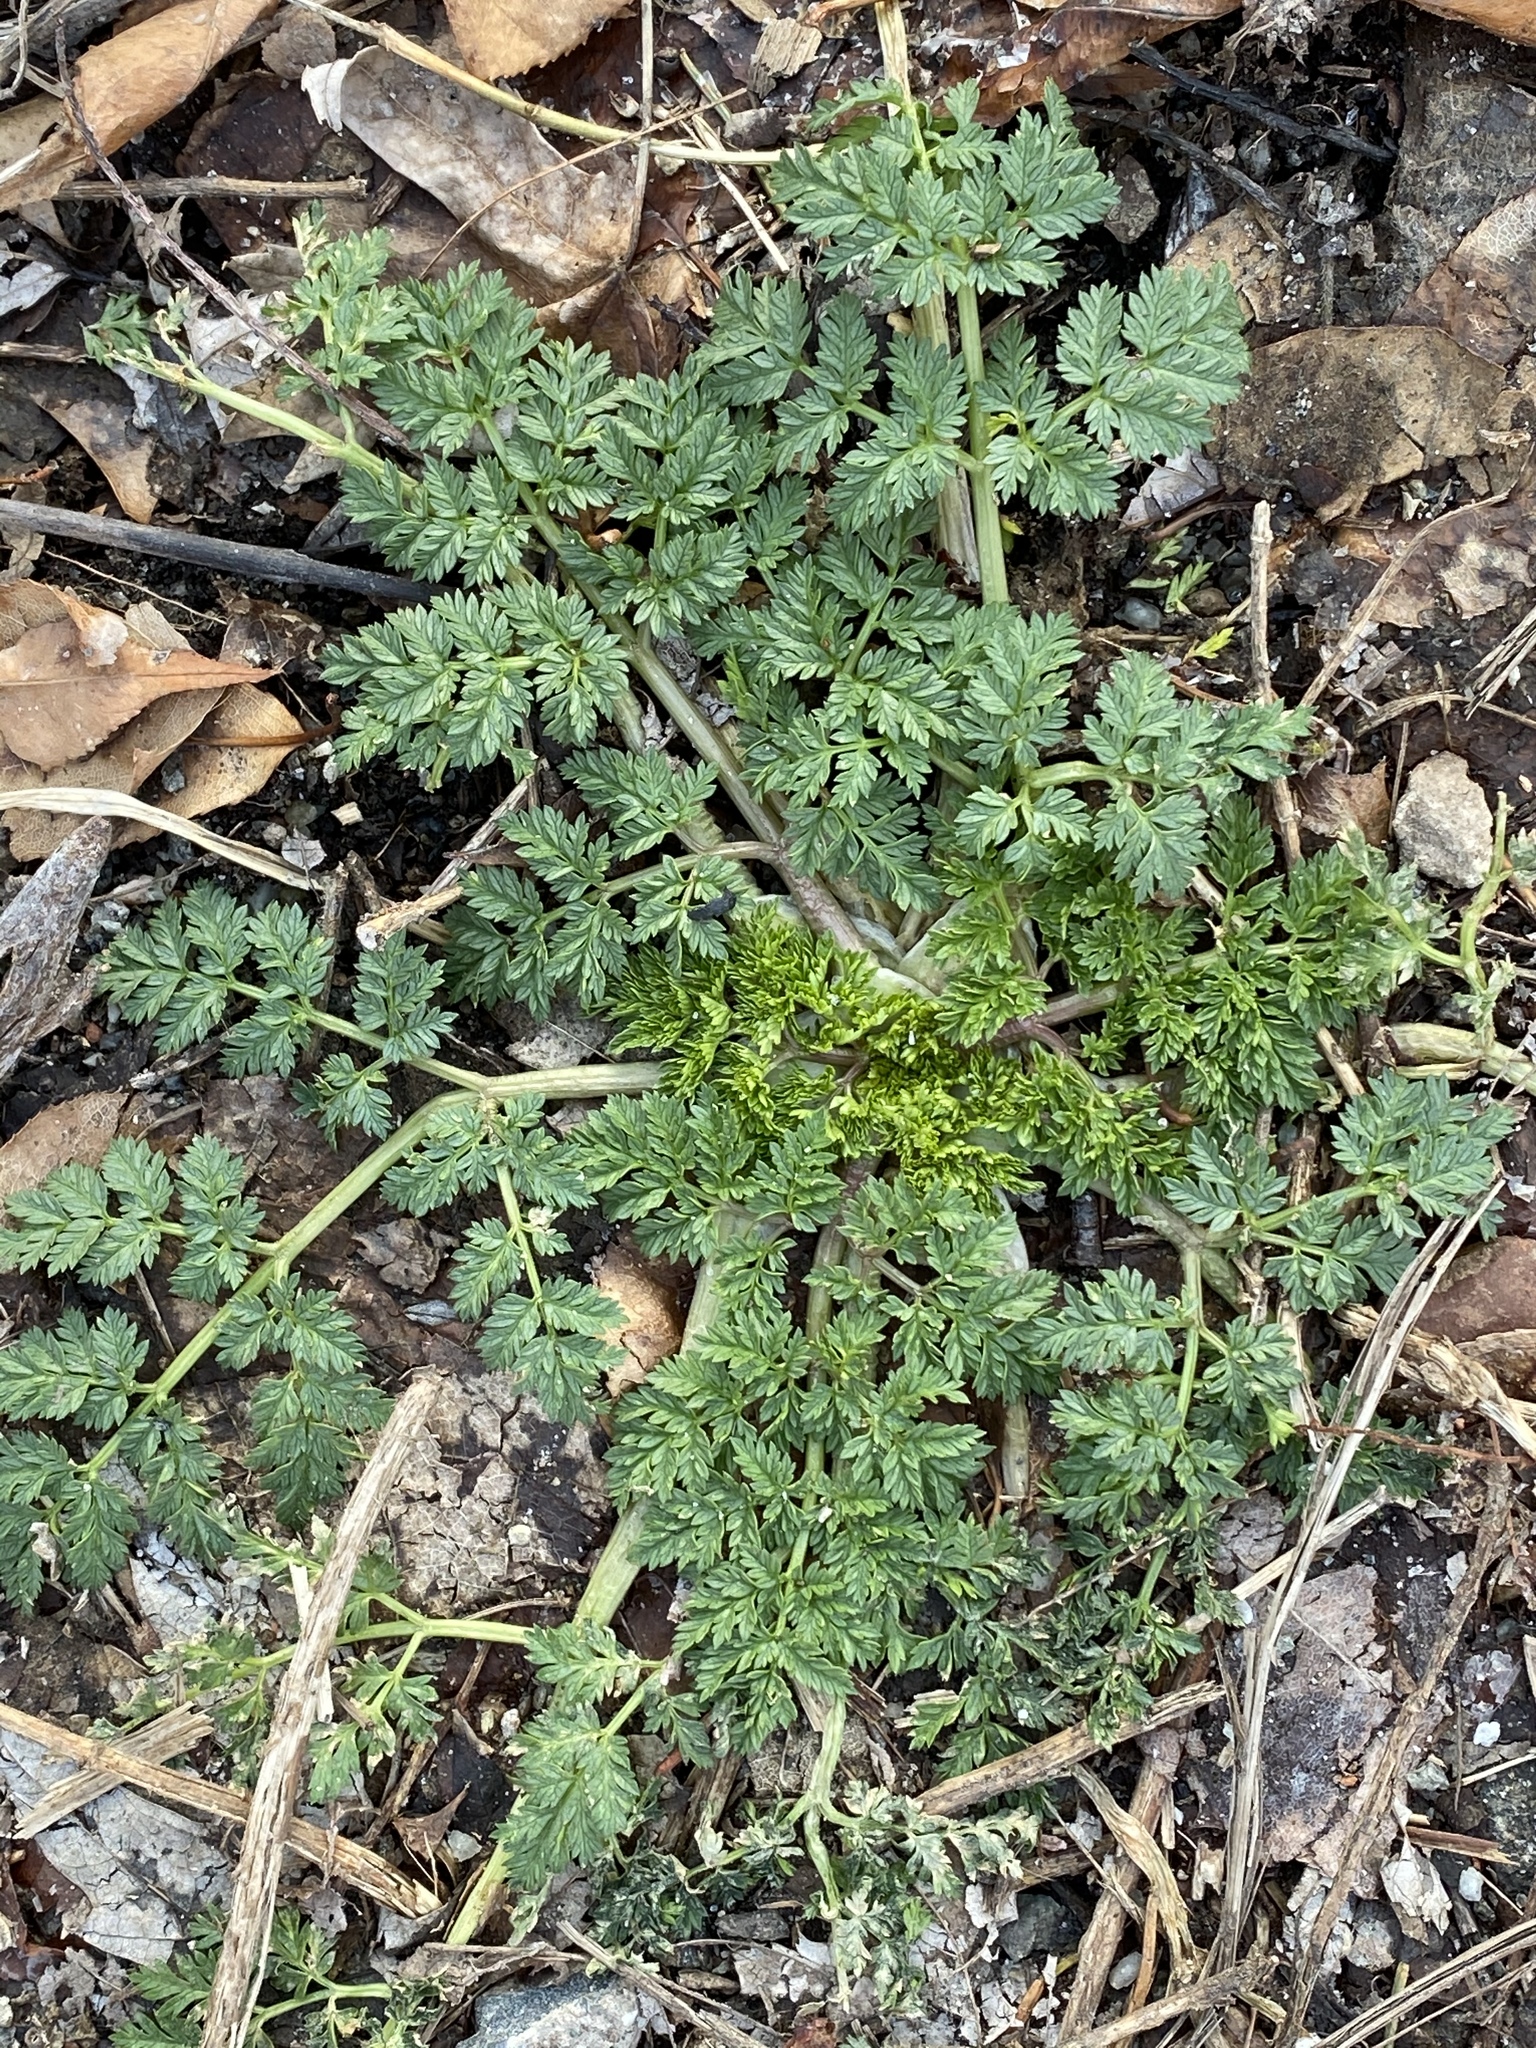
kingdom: Plantae
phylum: Tracheophyta
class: Magnoliopsida
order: Apiales
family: Apiaceae
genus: Conium
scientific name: Conium maculatum
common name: Hemlock
